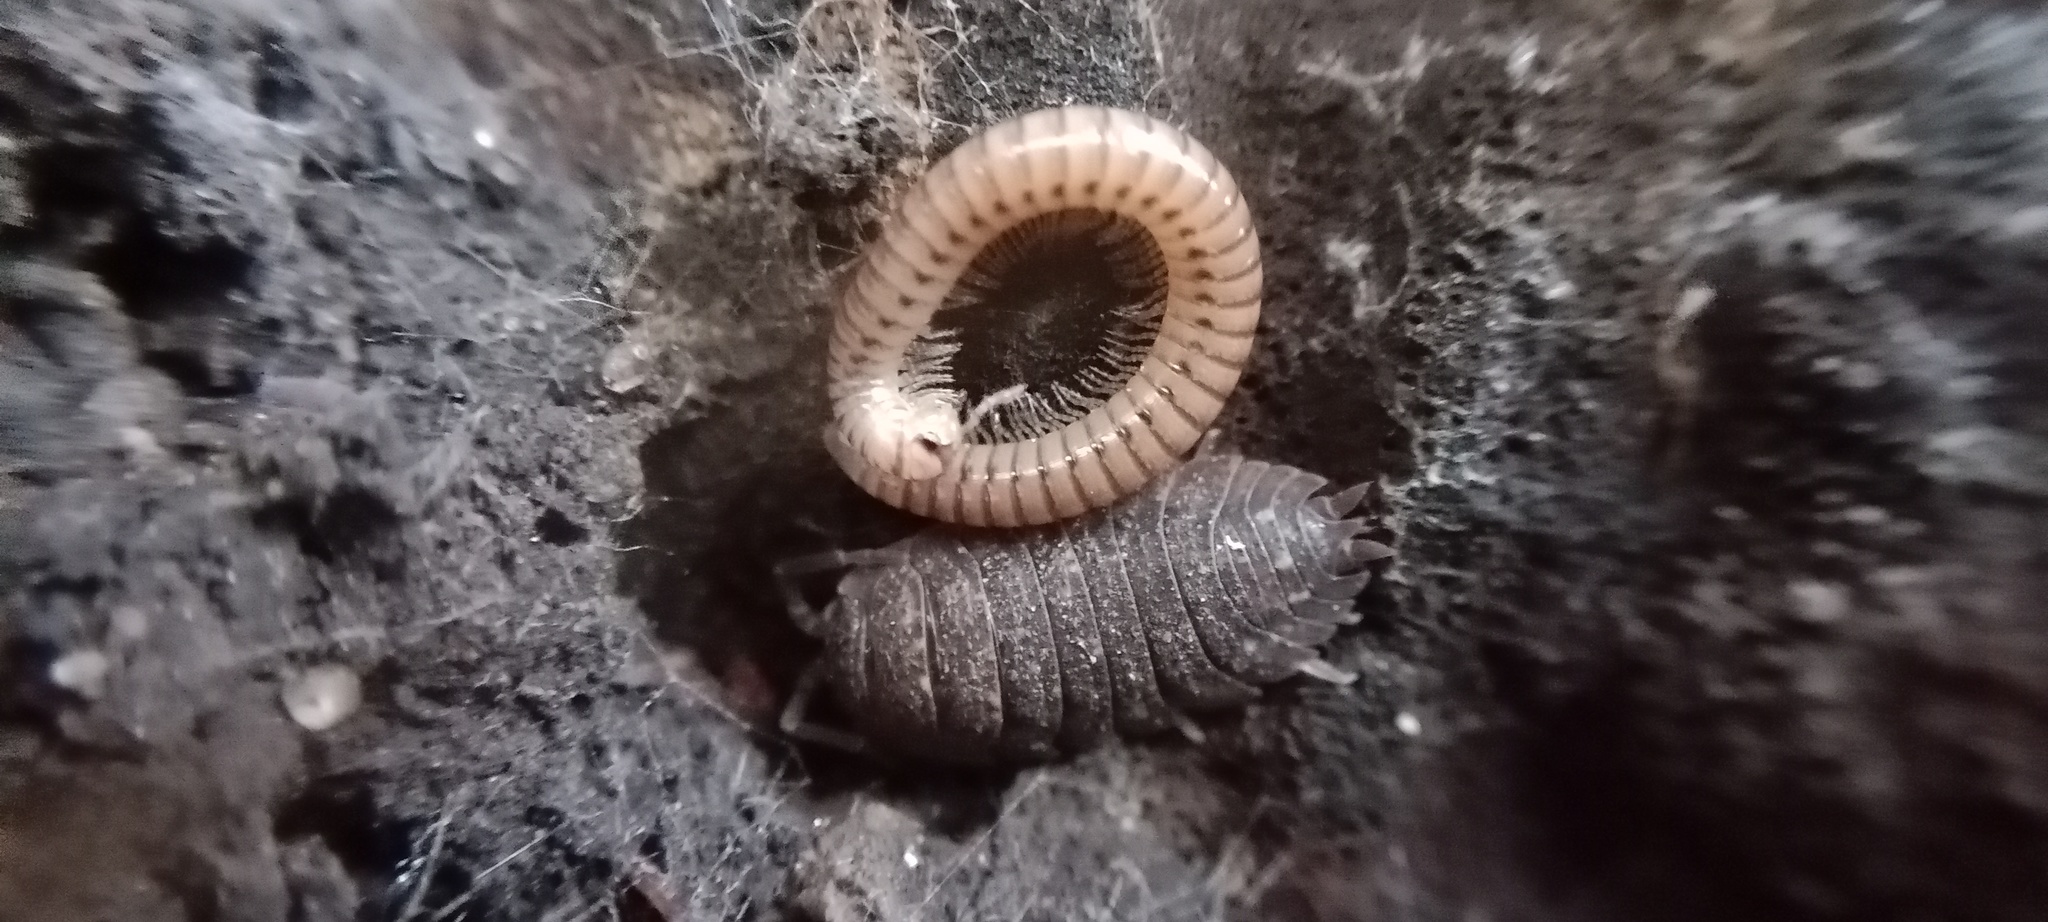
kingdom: Animalia
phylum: Arthropoda
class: Malacostraca
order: Isopoda
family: Porcellionidae
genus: Porcellio
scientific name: Porcellio scaber
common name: Common rough woodlouse
